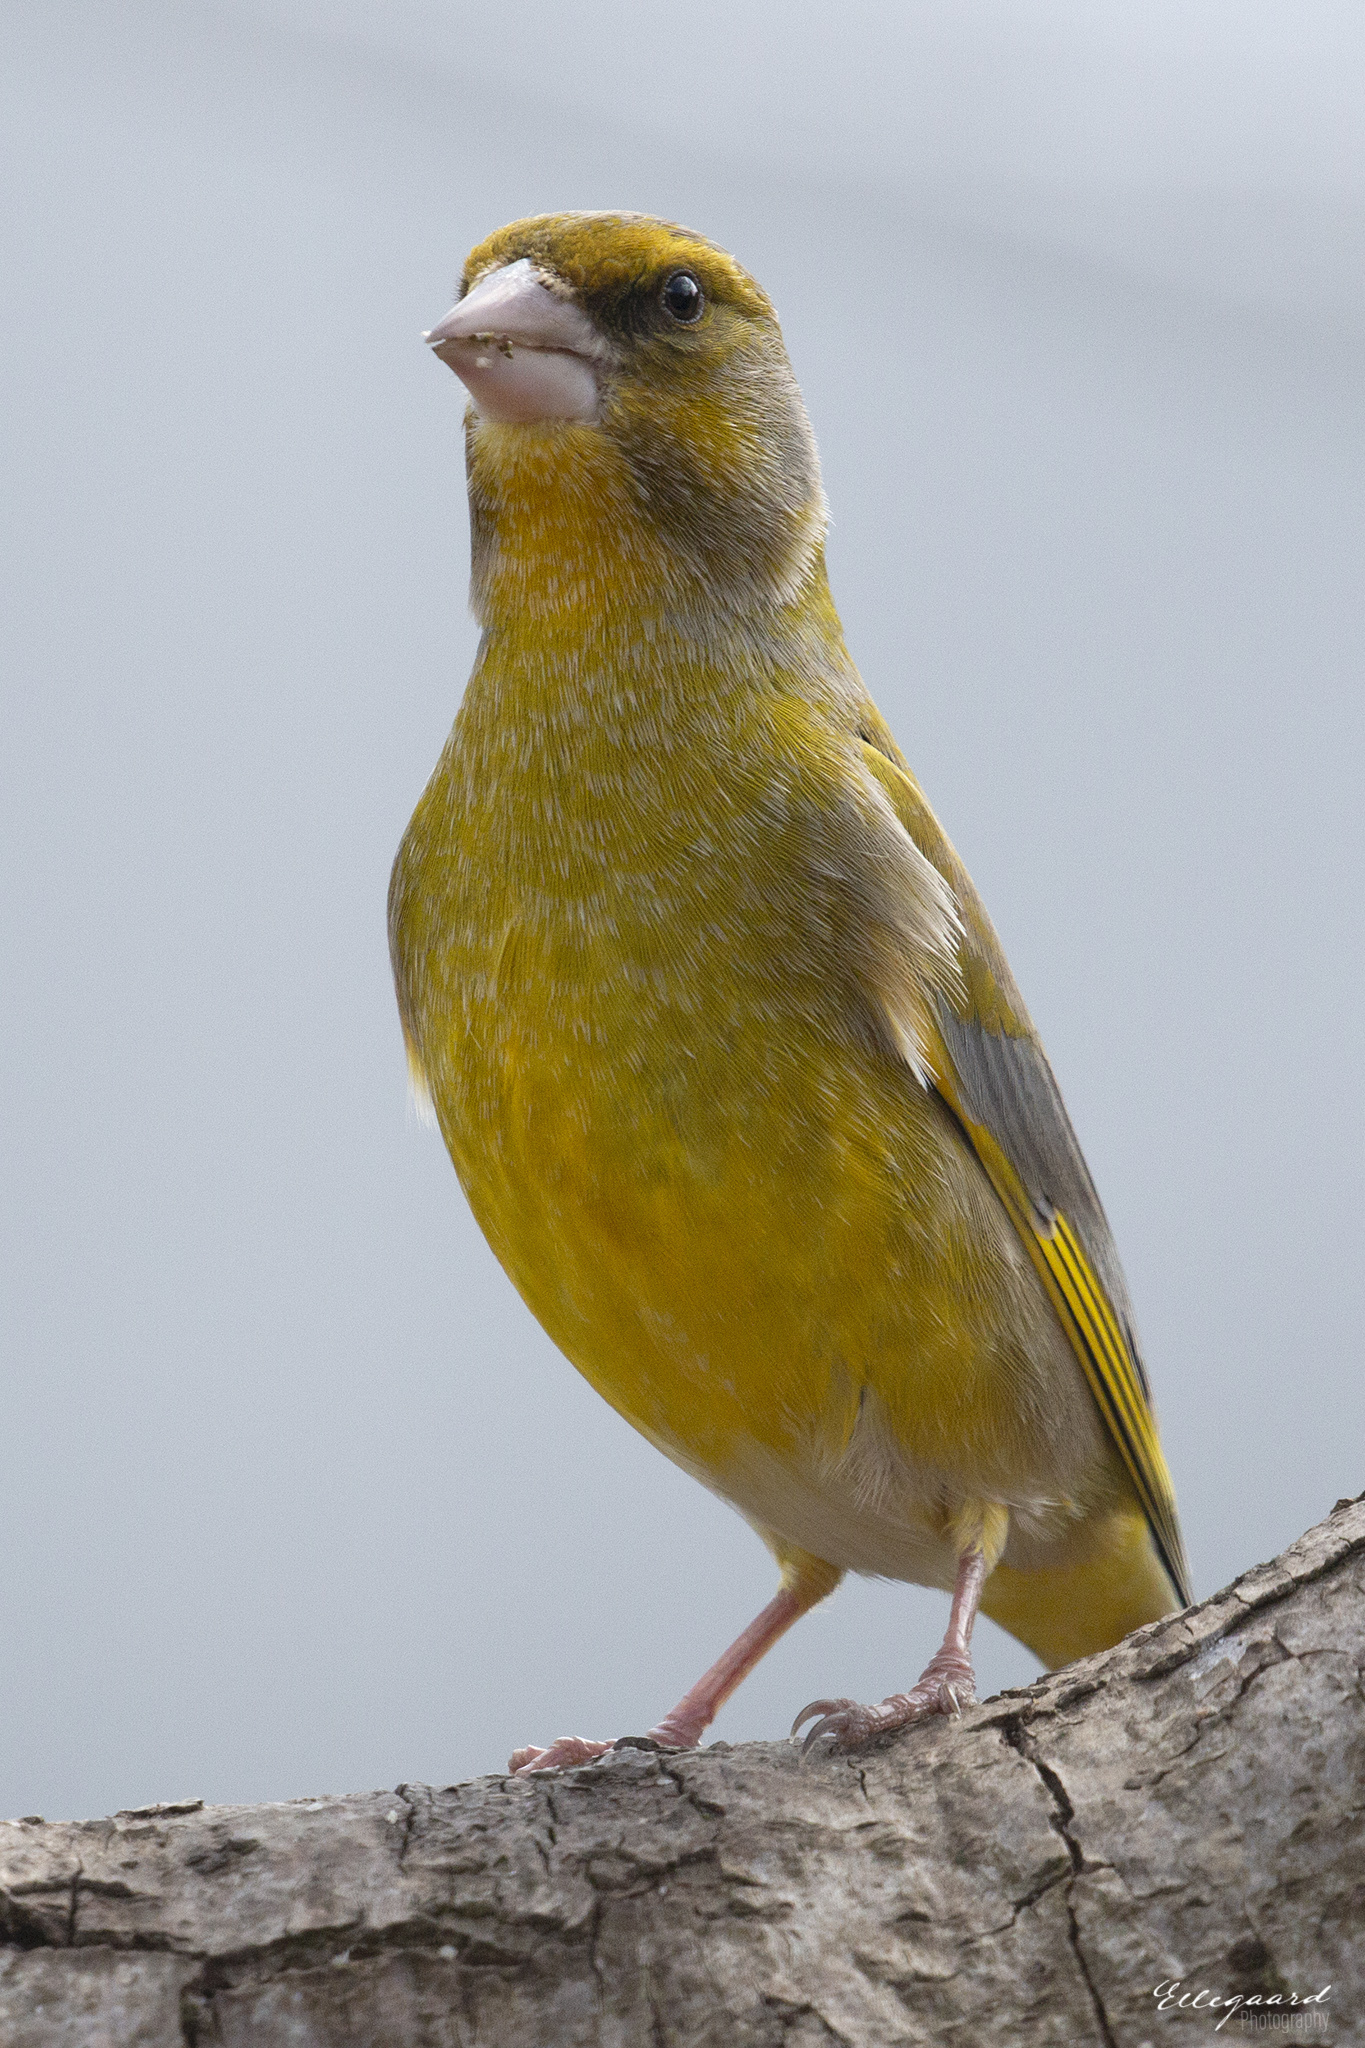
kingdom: Plantae
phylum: Tracheophyta
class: Liliopsida
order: Poales
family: Poaceae
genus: Chloris
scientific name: Chloris chloris
